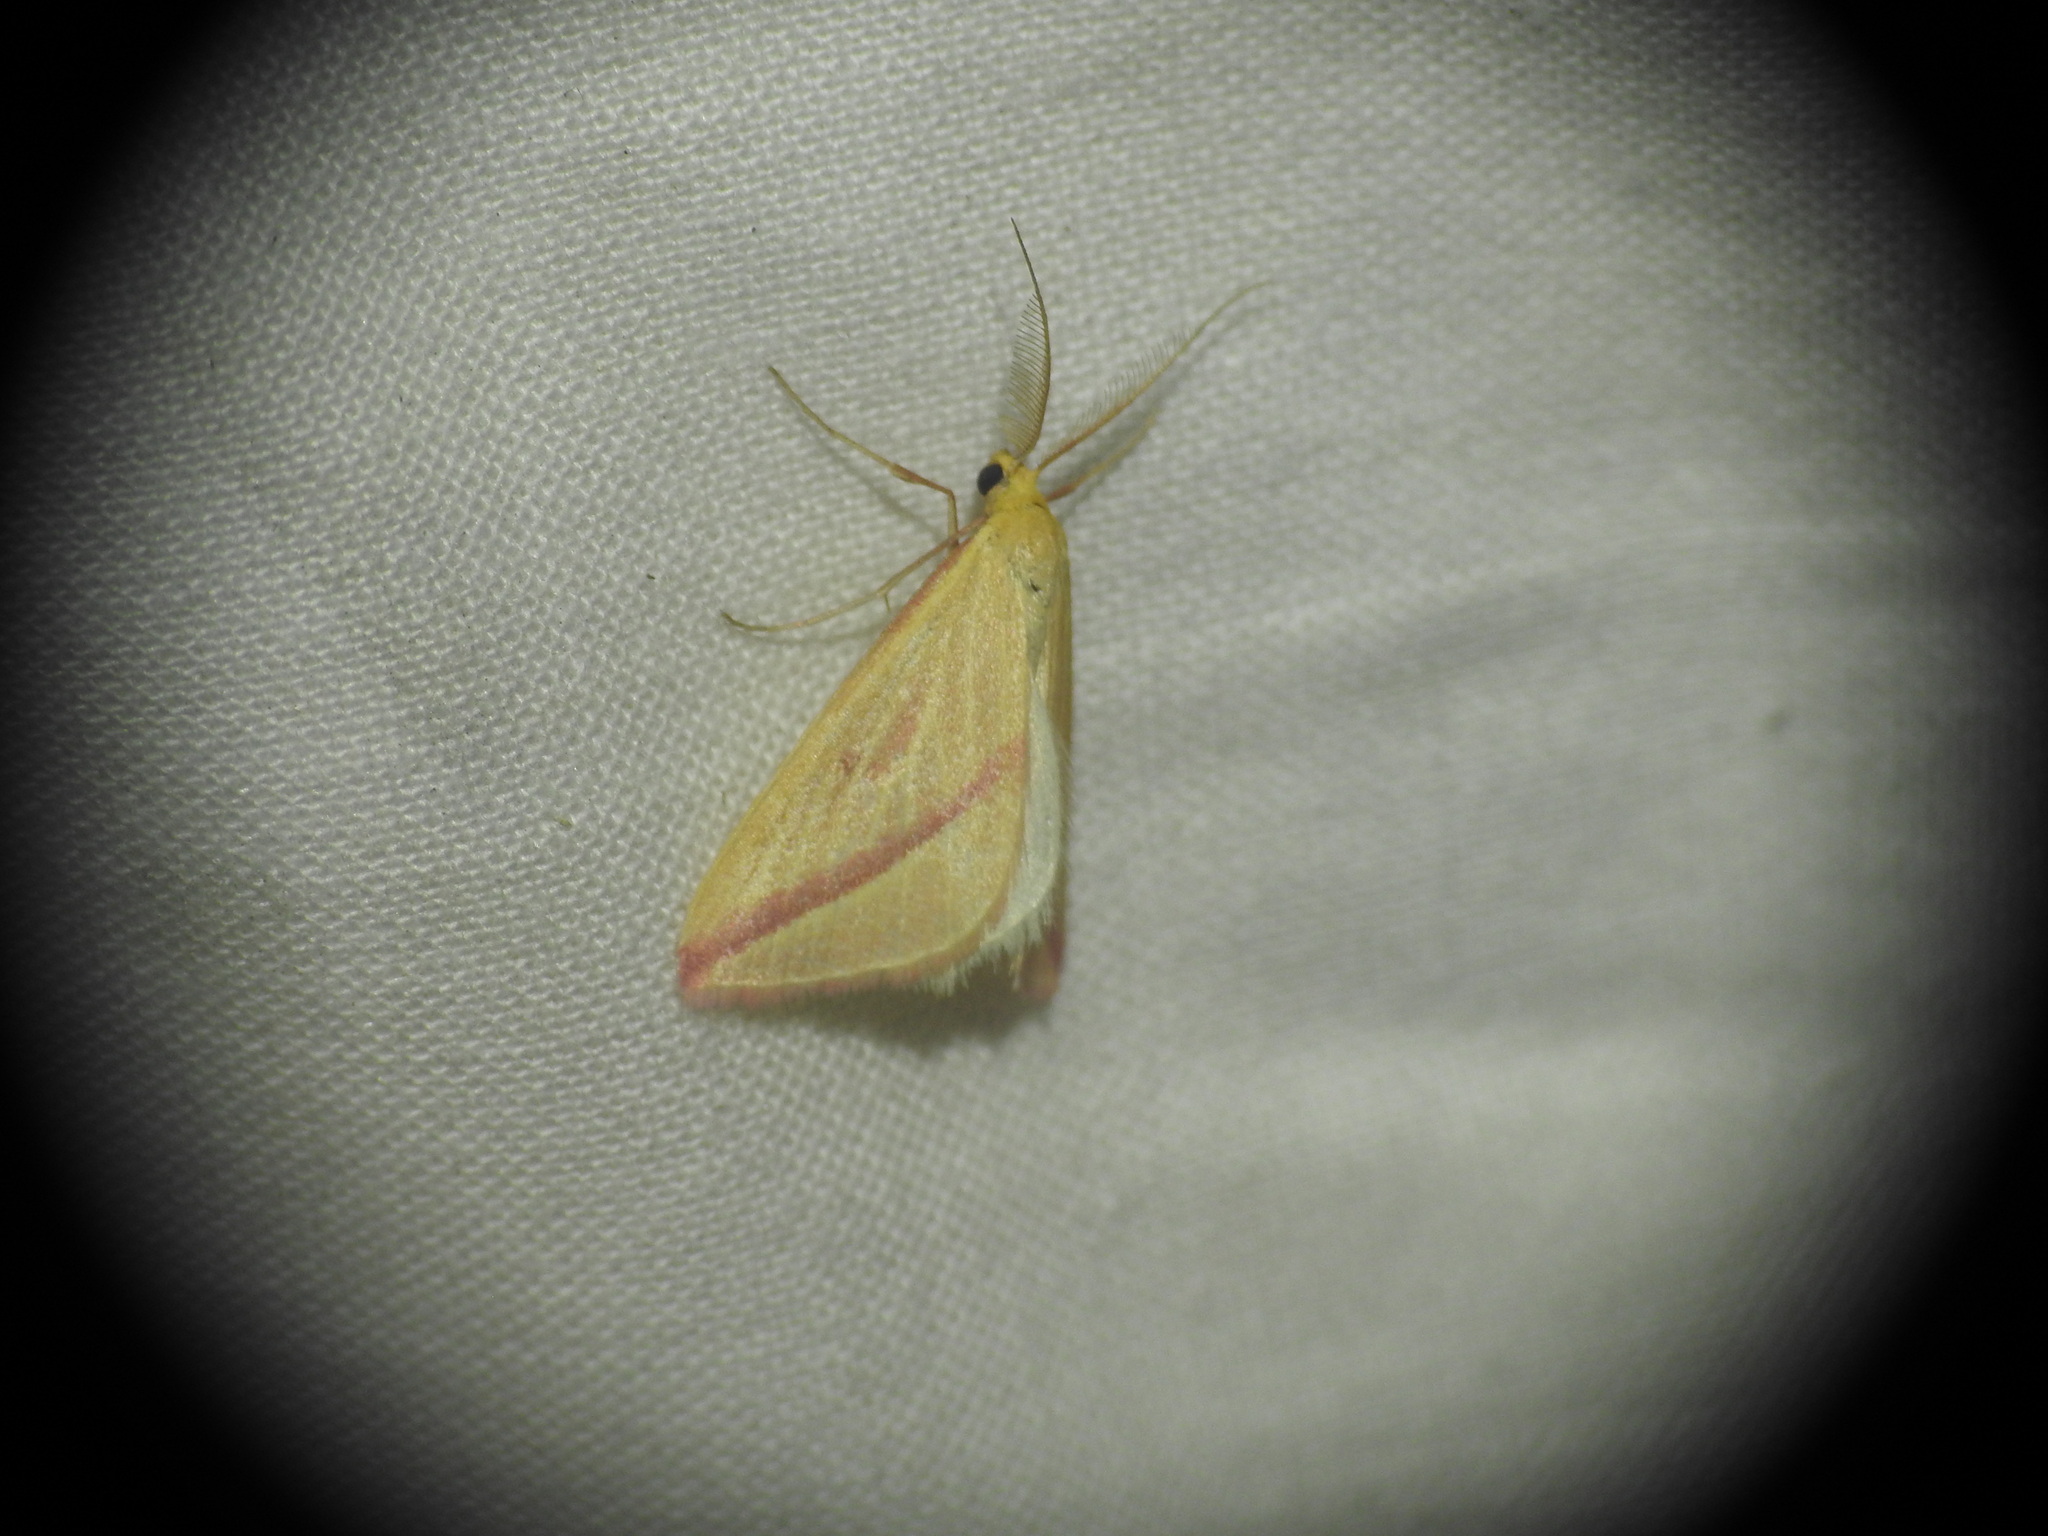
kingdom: Animalia
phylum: Arthropoda
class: Insecta
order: Lepidoptera
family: Geometridae
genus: Rhodometra
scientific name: Rhodometra sacraria
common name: Vestal
